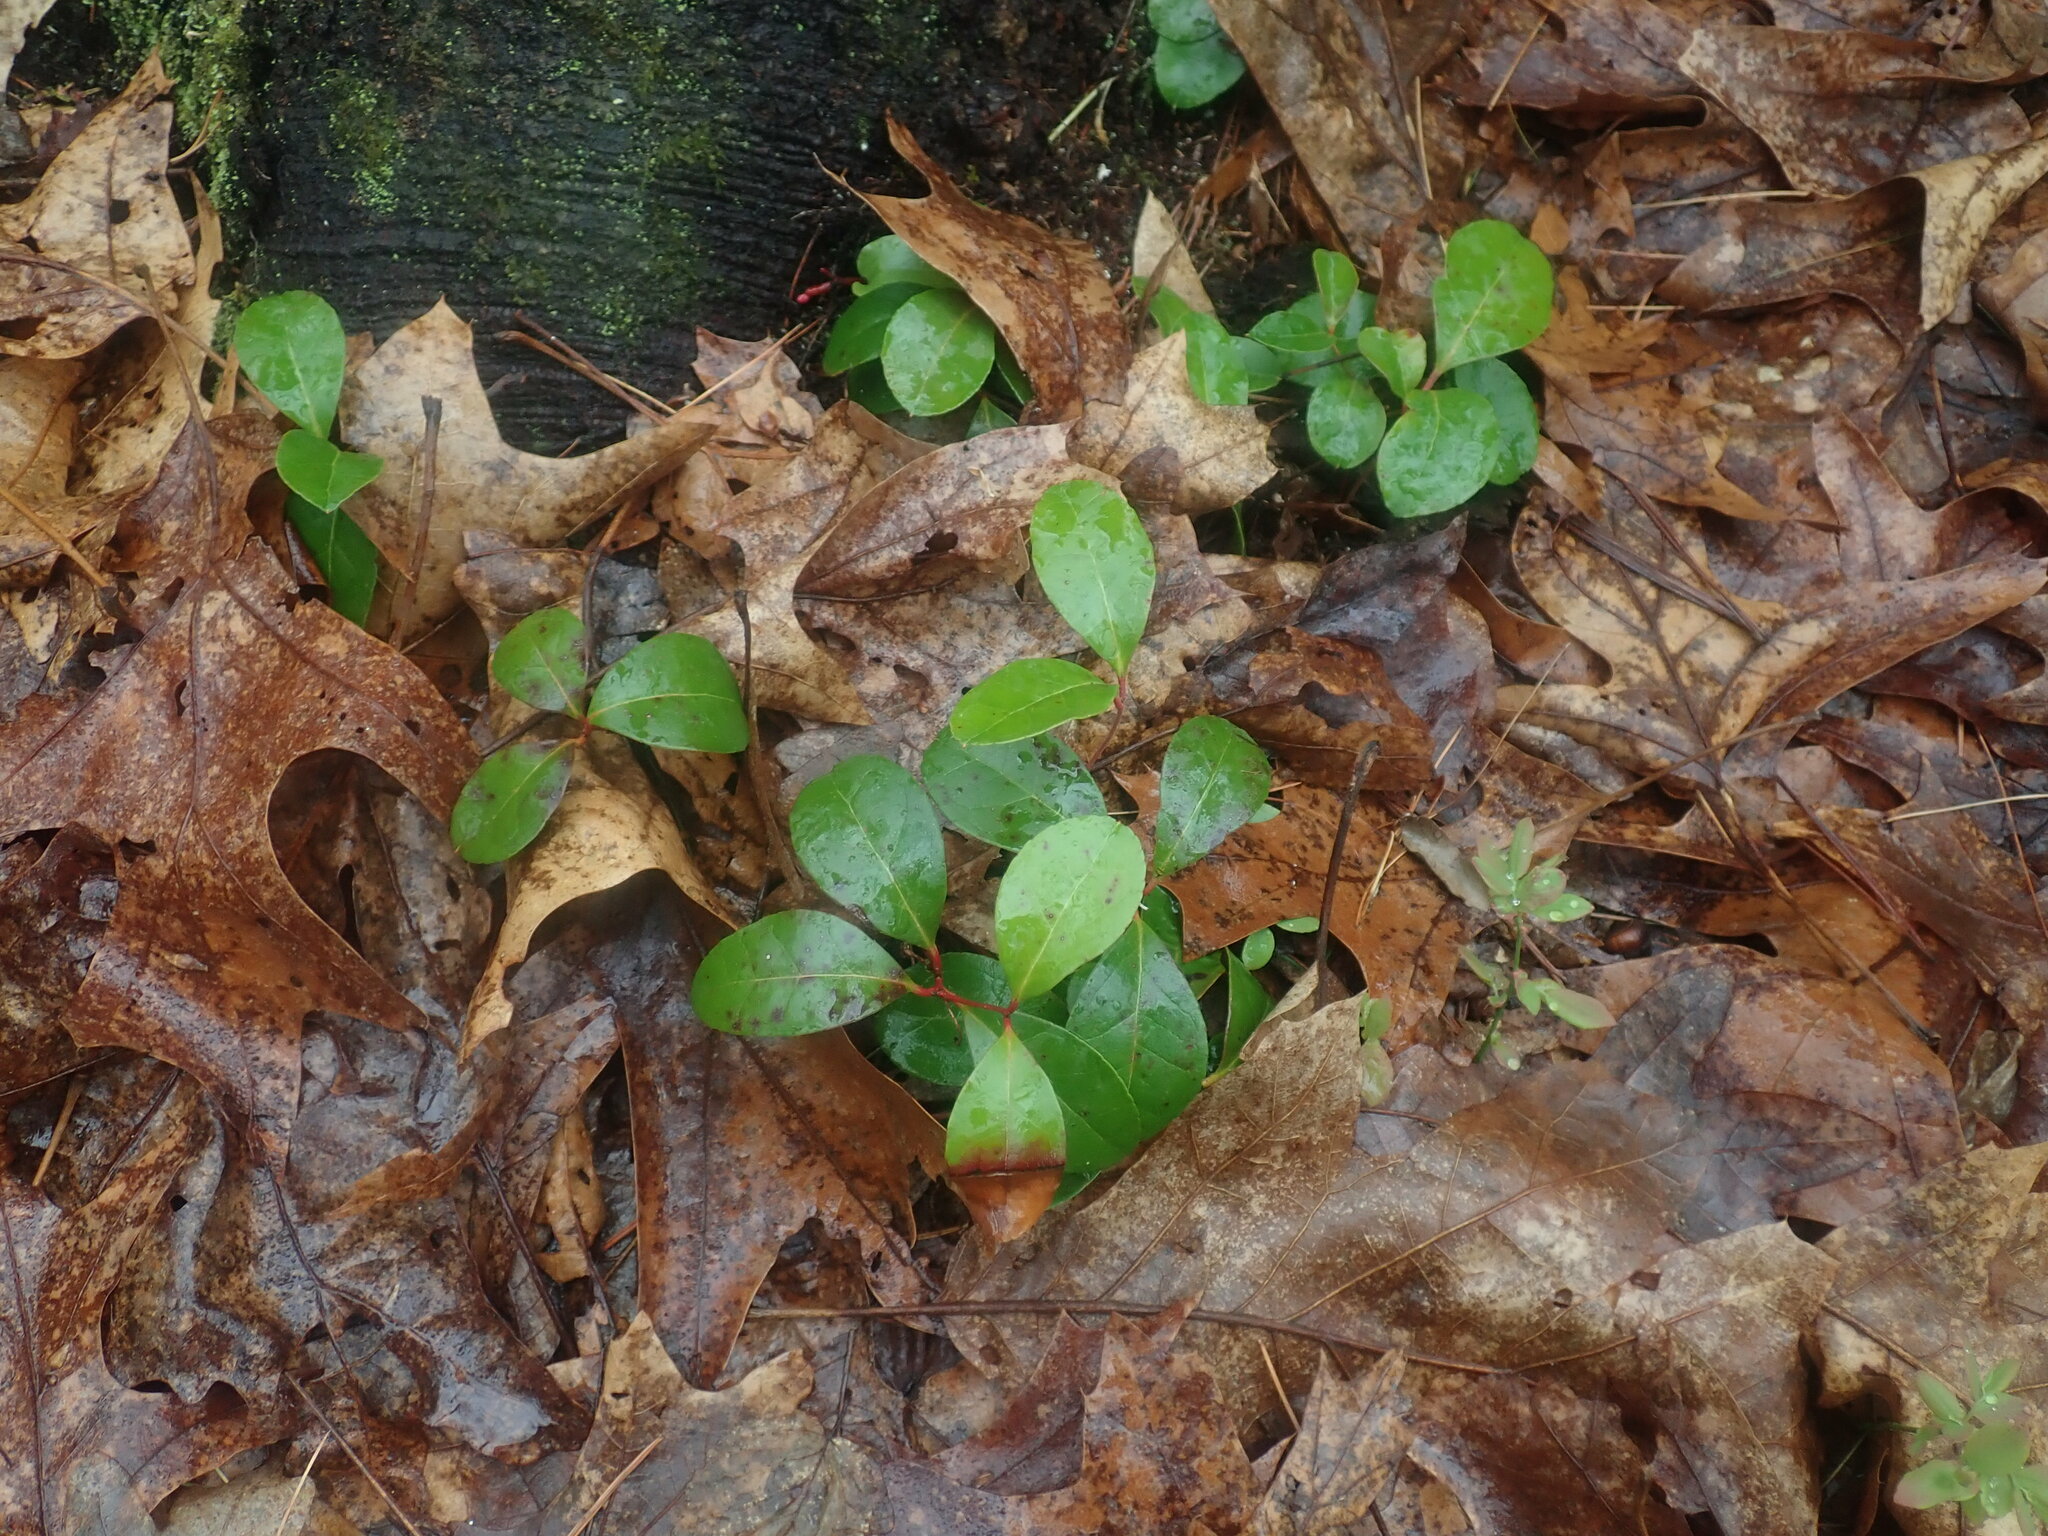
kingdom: Plantae
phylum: Tracheophyta
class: Magnoliopsida
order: Ericales
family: Ericaceae
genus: Gaultheria
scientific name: Gaultheria procumbens
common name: Checkerberry
